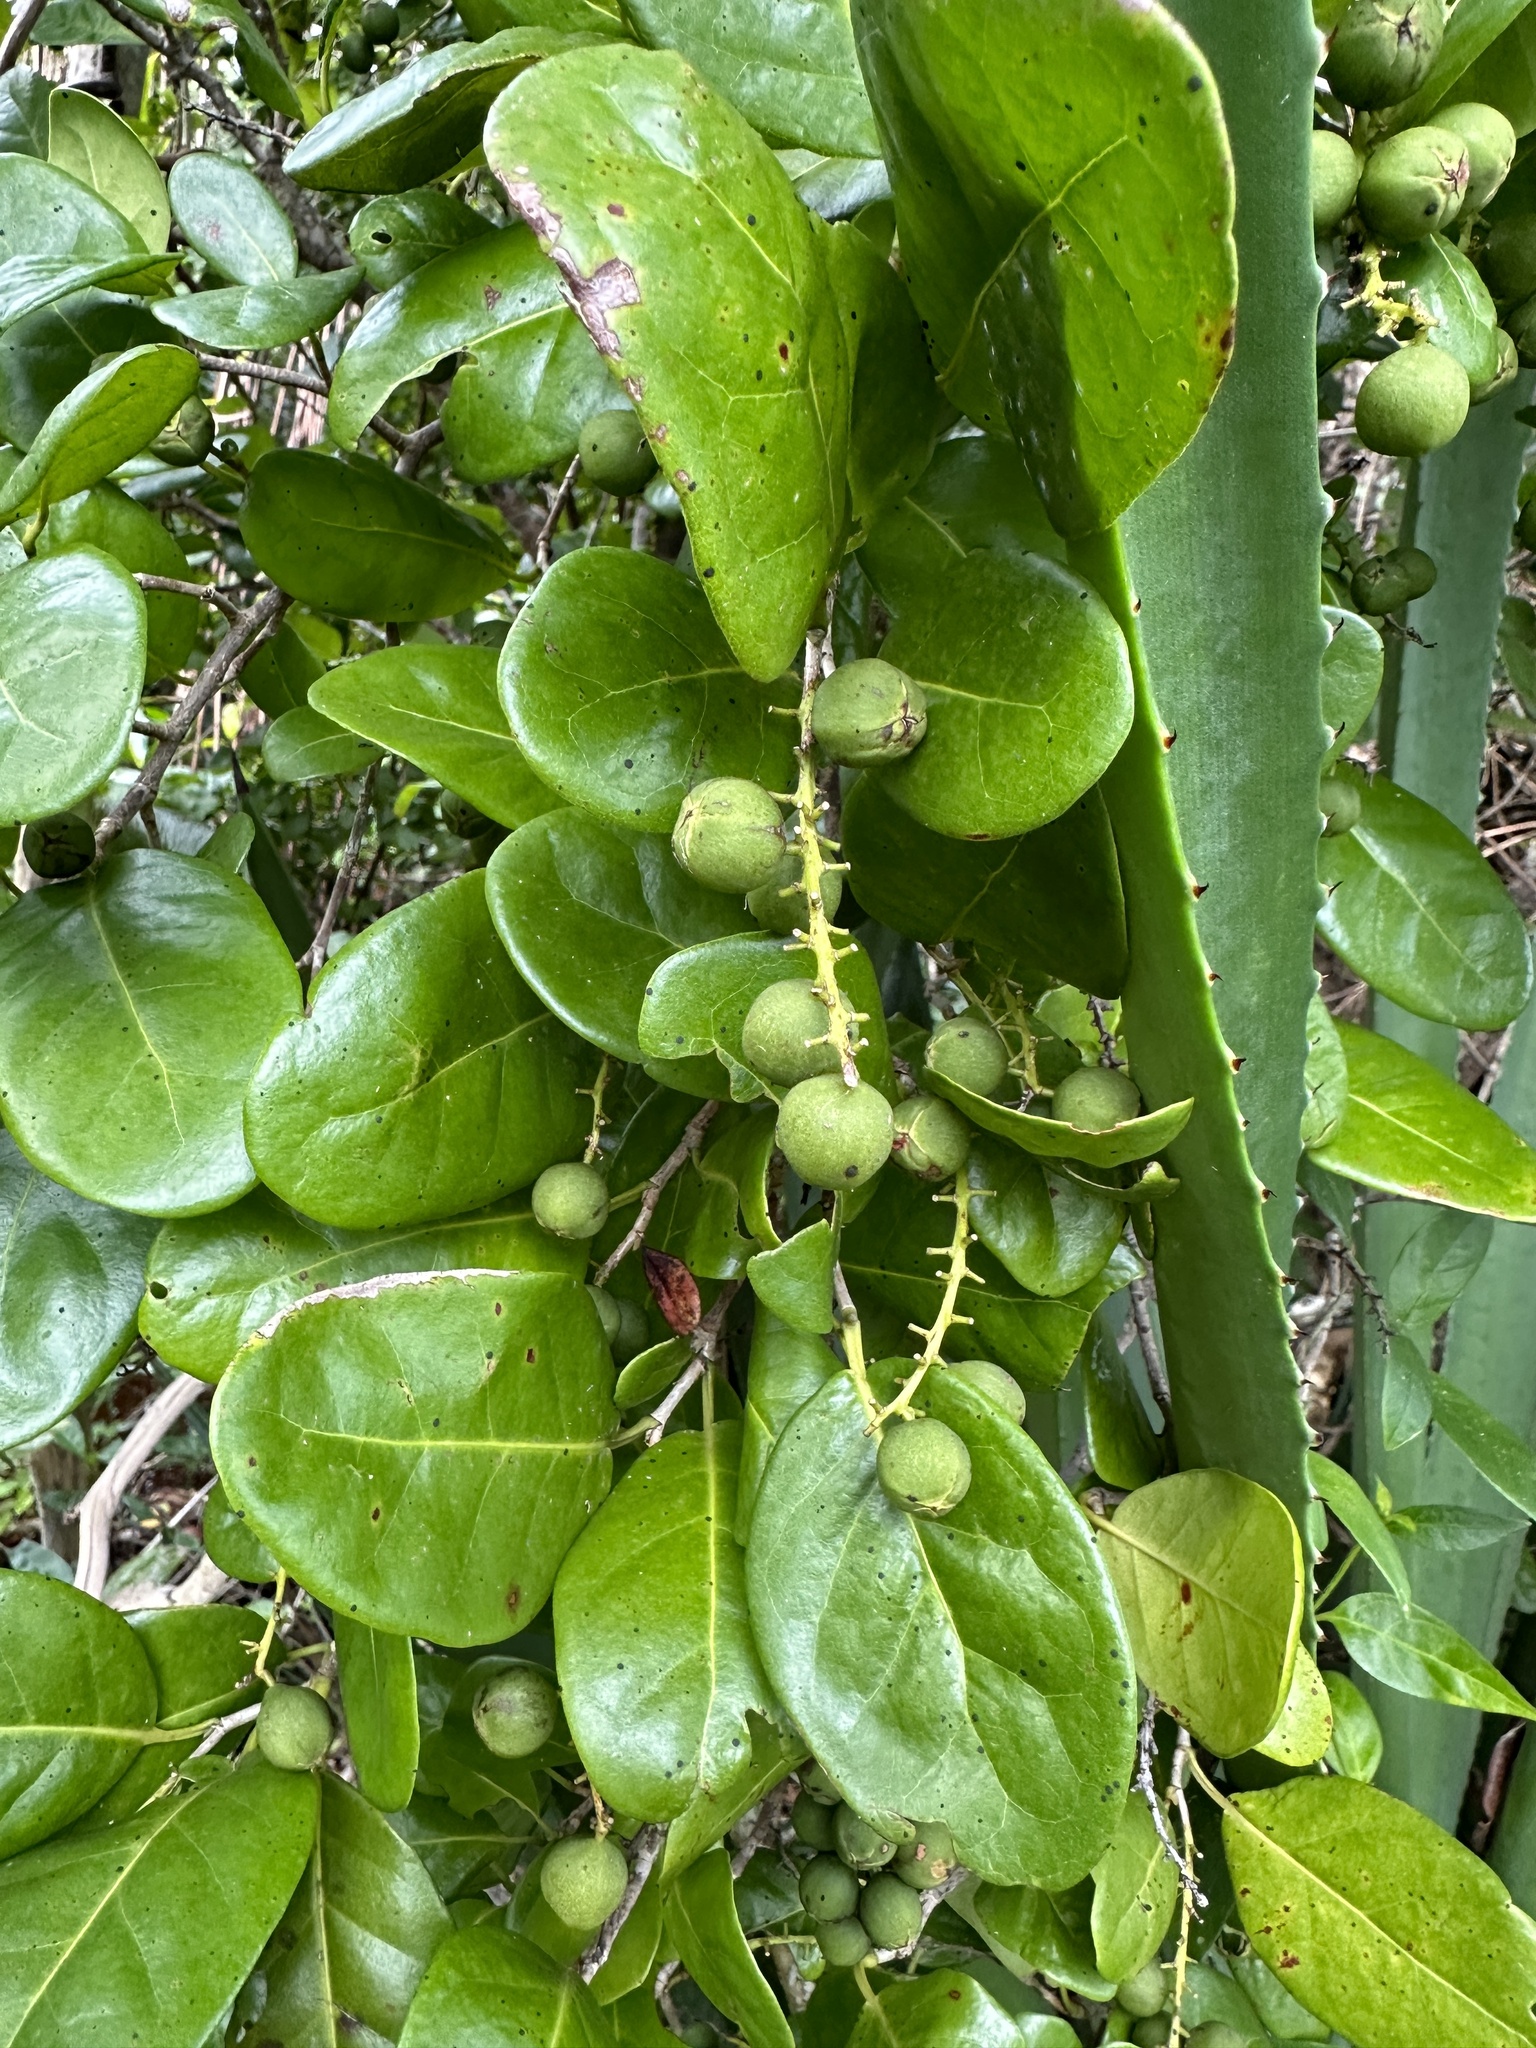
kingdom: Plantae
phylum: Tracheophyta
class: Magnoliopsida
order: Caryophyllales
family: Polygonaceae
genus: Coccoloba
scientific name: Coccoloba diversifolia
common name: Pigeon-plum
